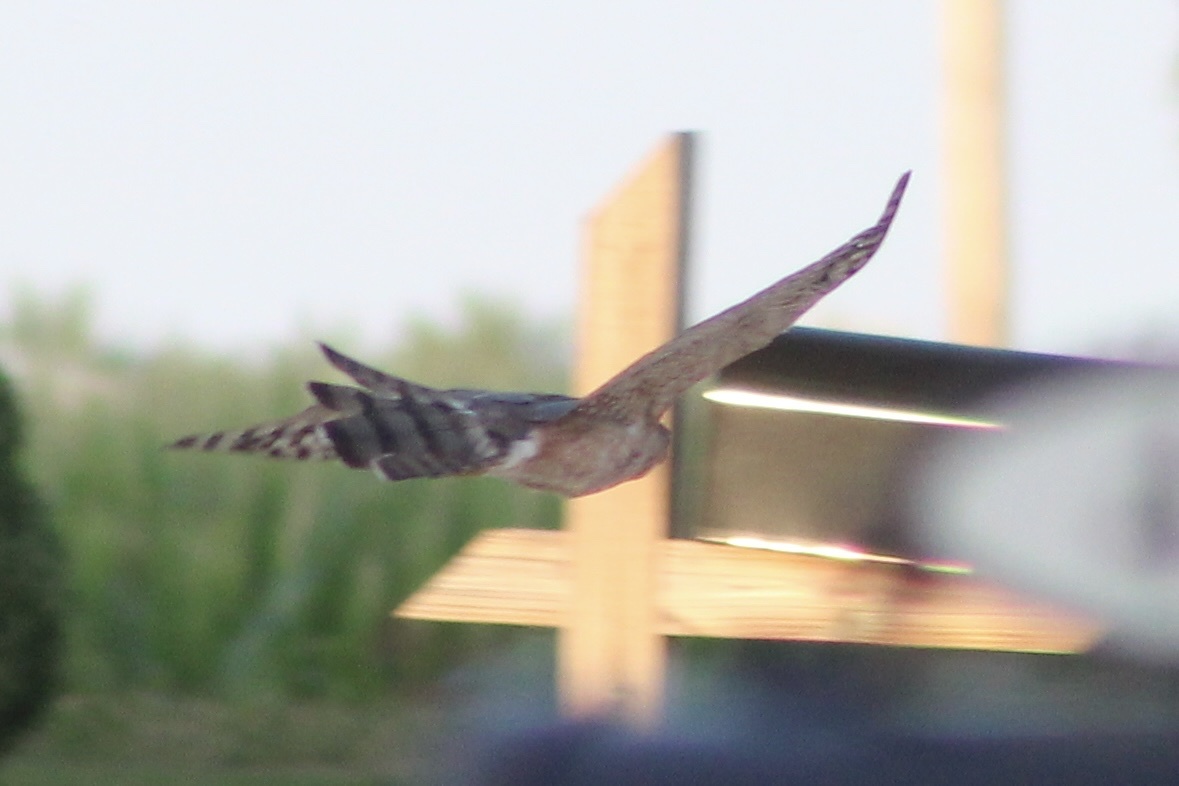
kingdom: Animalia
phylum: Chordata
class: Aves
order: Accipitriformes
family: Accipitridae
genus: Accipiter
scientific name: Accipiter cooperii
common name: Cooper's hawk
